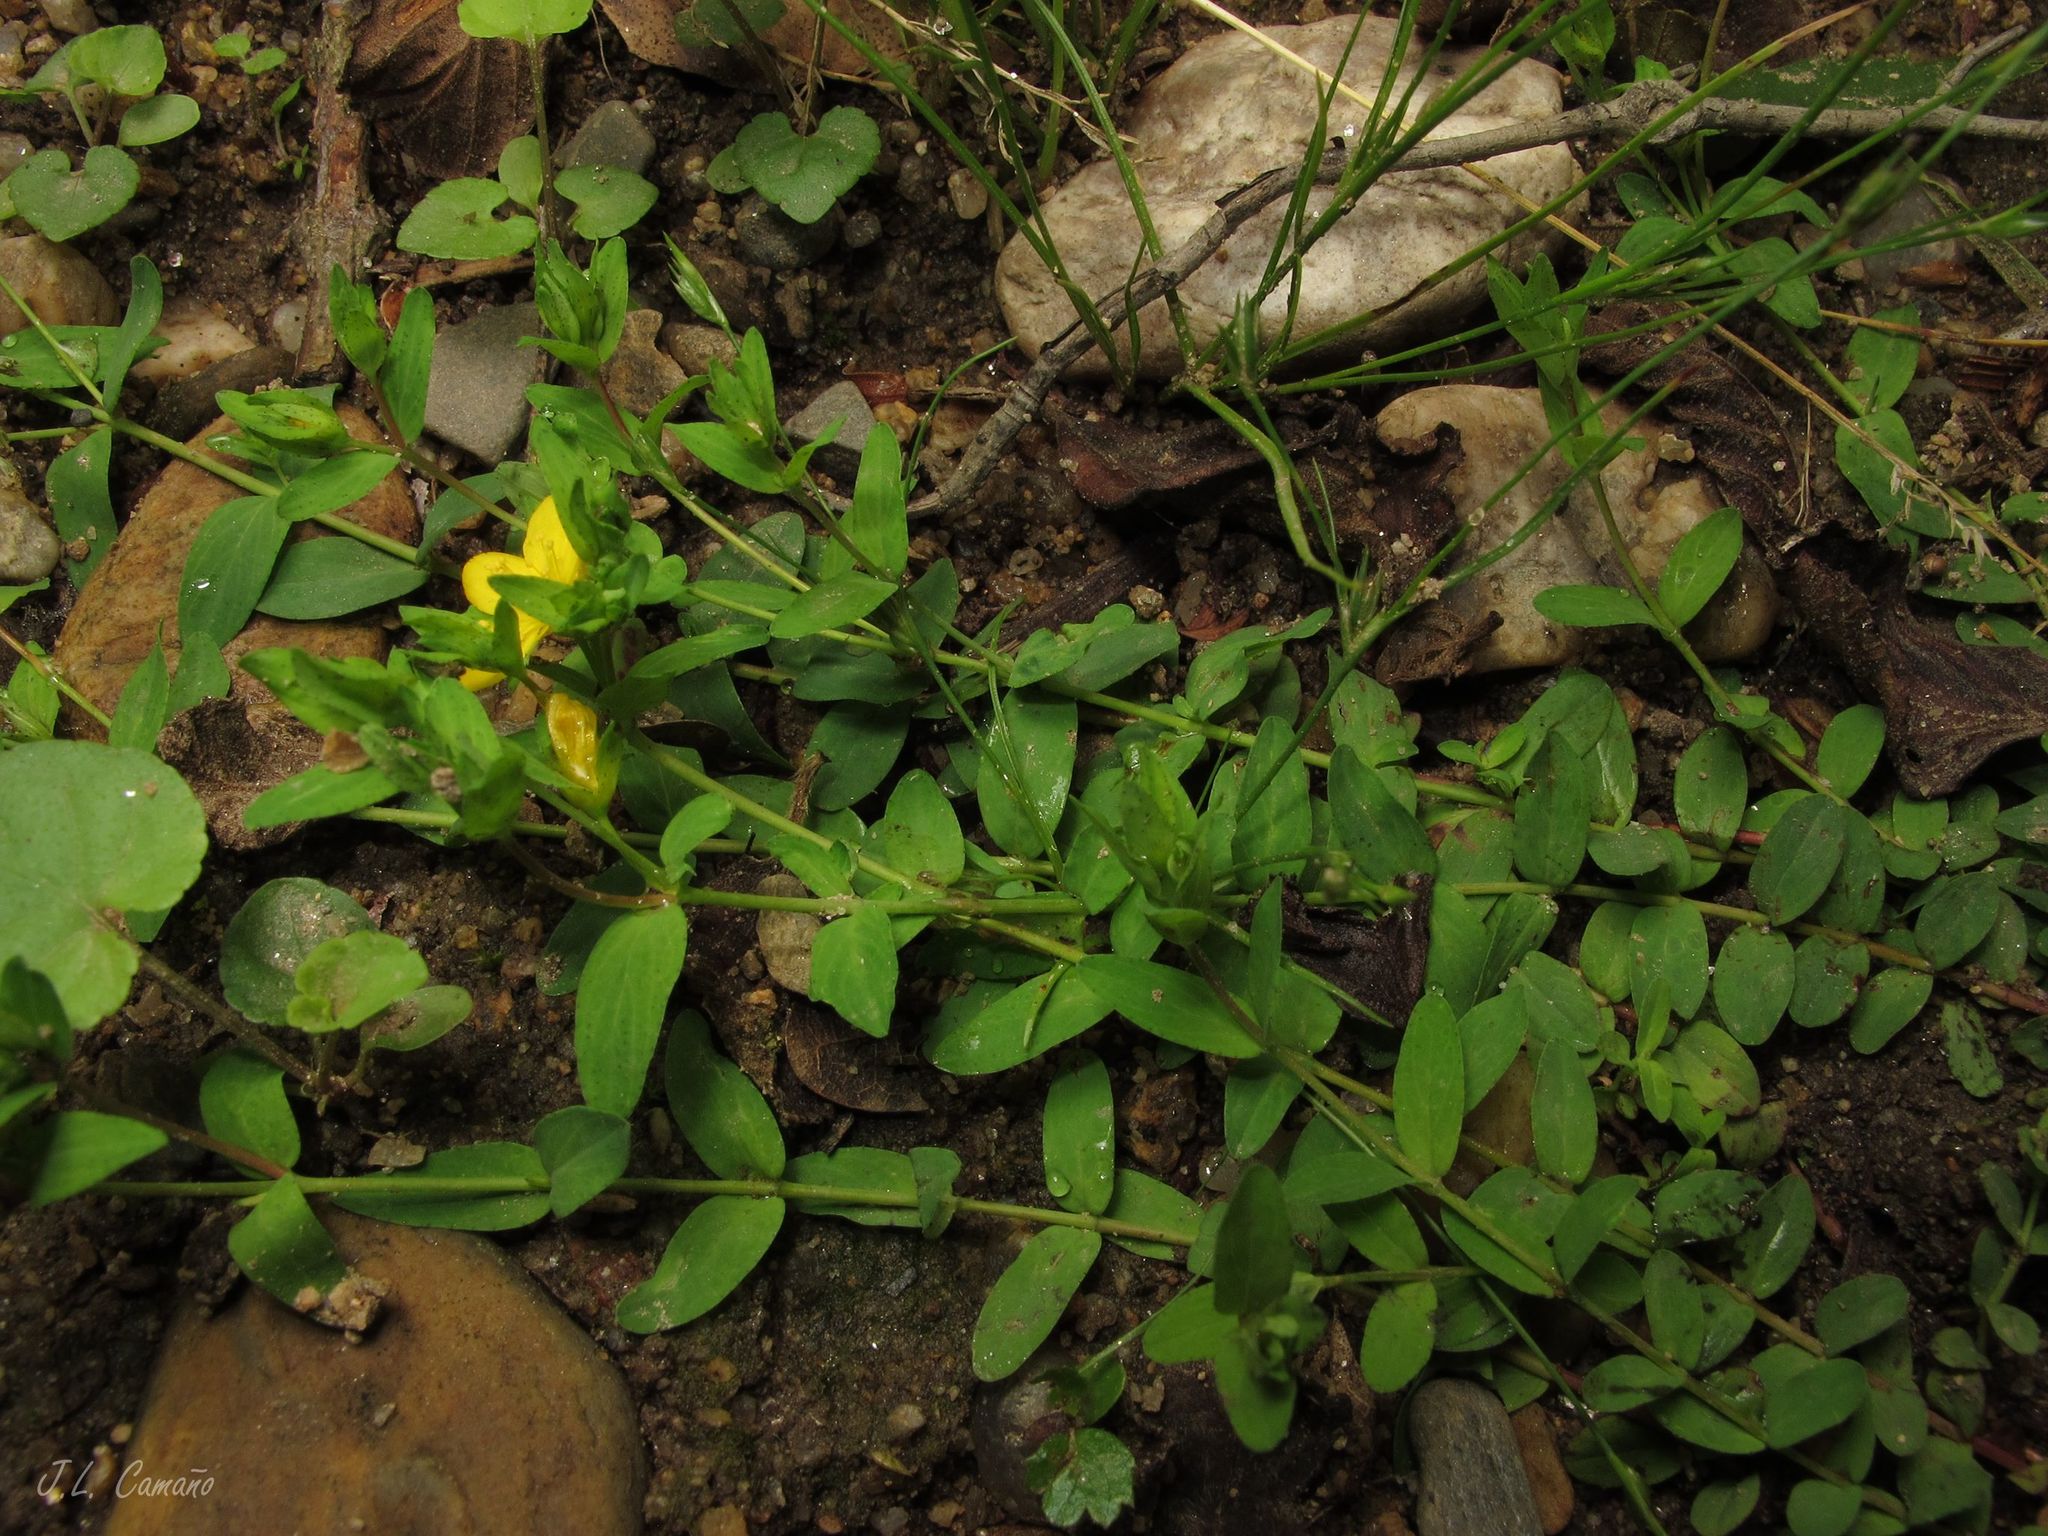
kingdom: Plantae
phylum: Tracheophyta
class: Magnoliopsida
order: Malpighiales
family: Hypericaceae
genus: Hypericum
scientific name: Hypericum humifusum
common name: Trailing st. john's-wort
